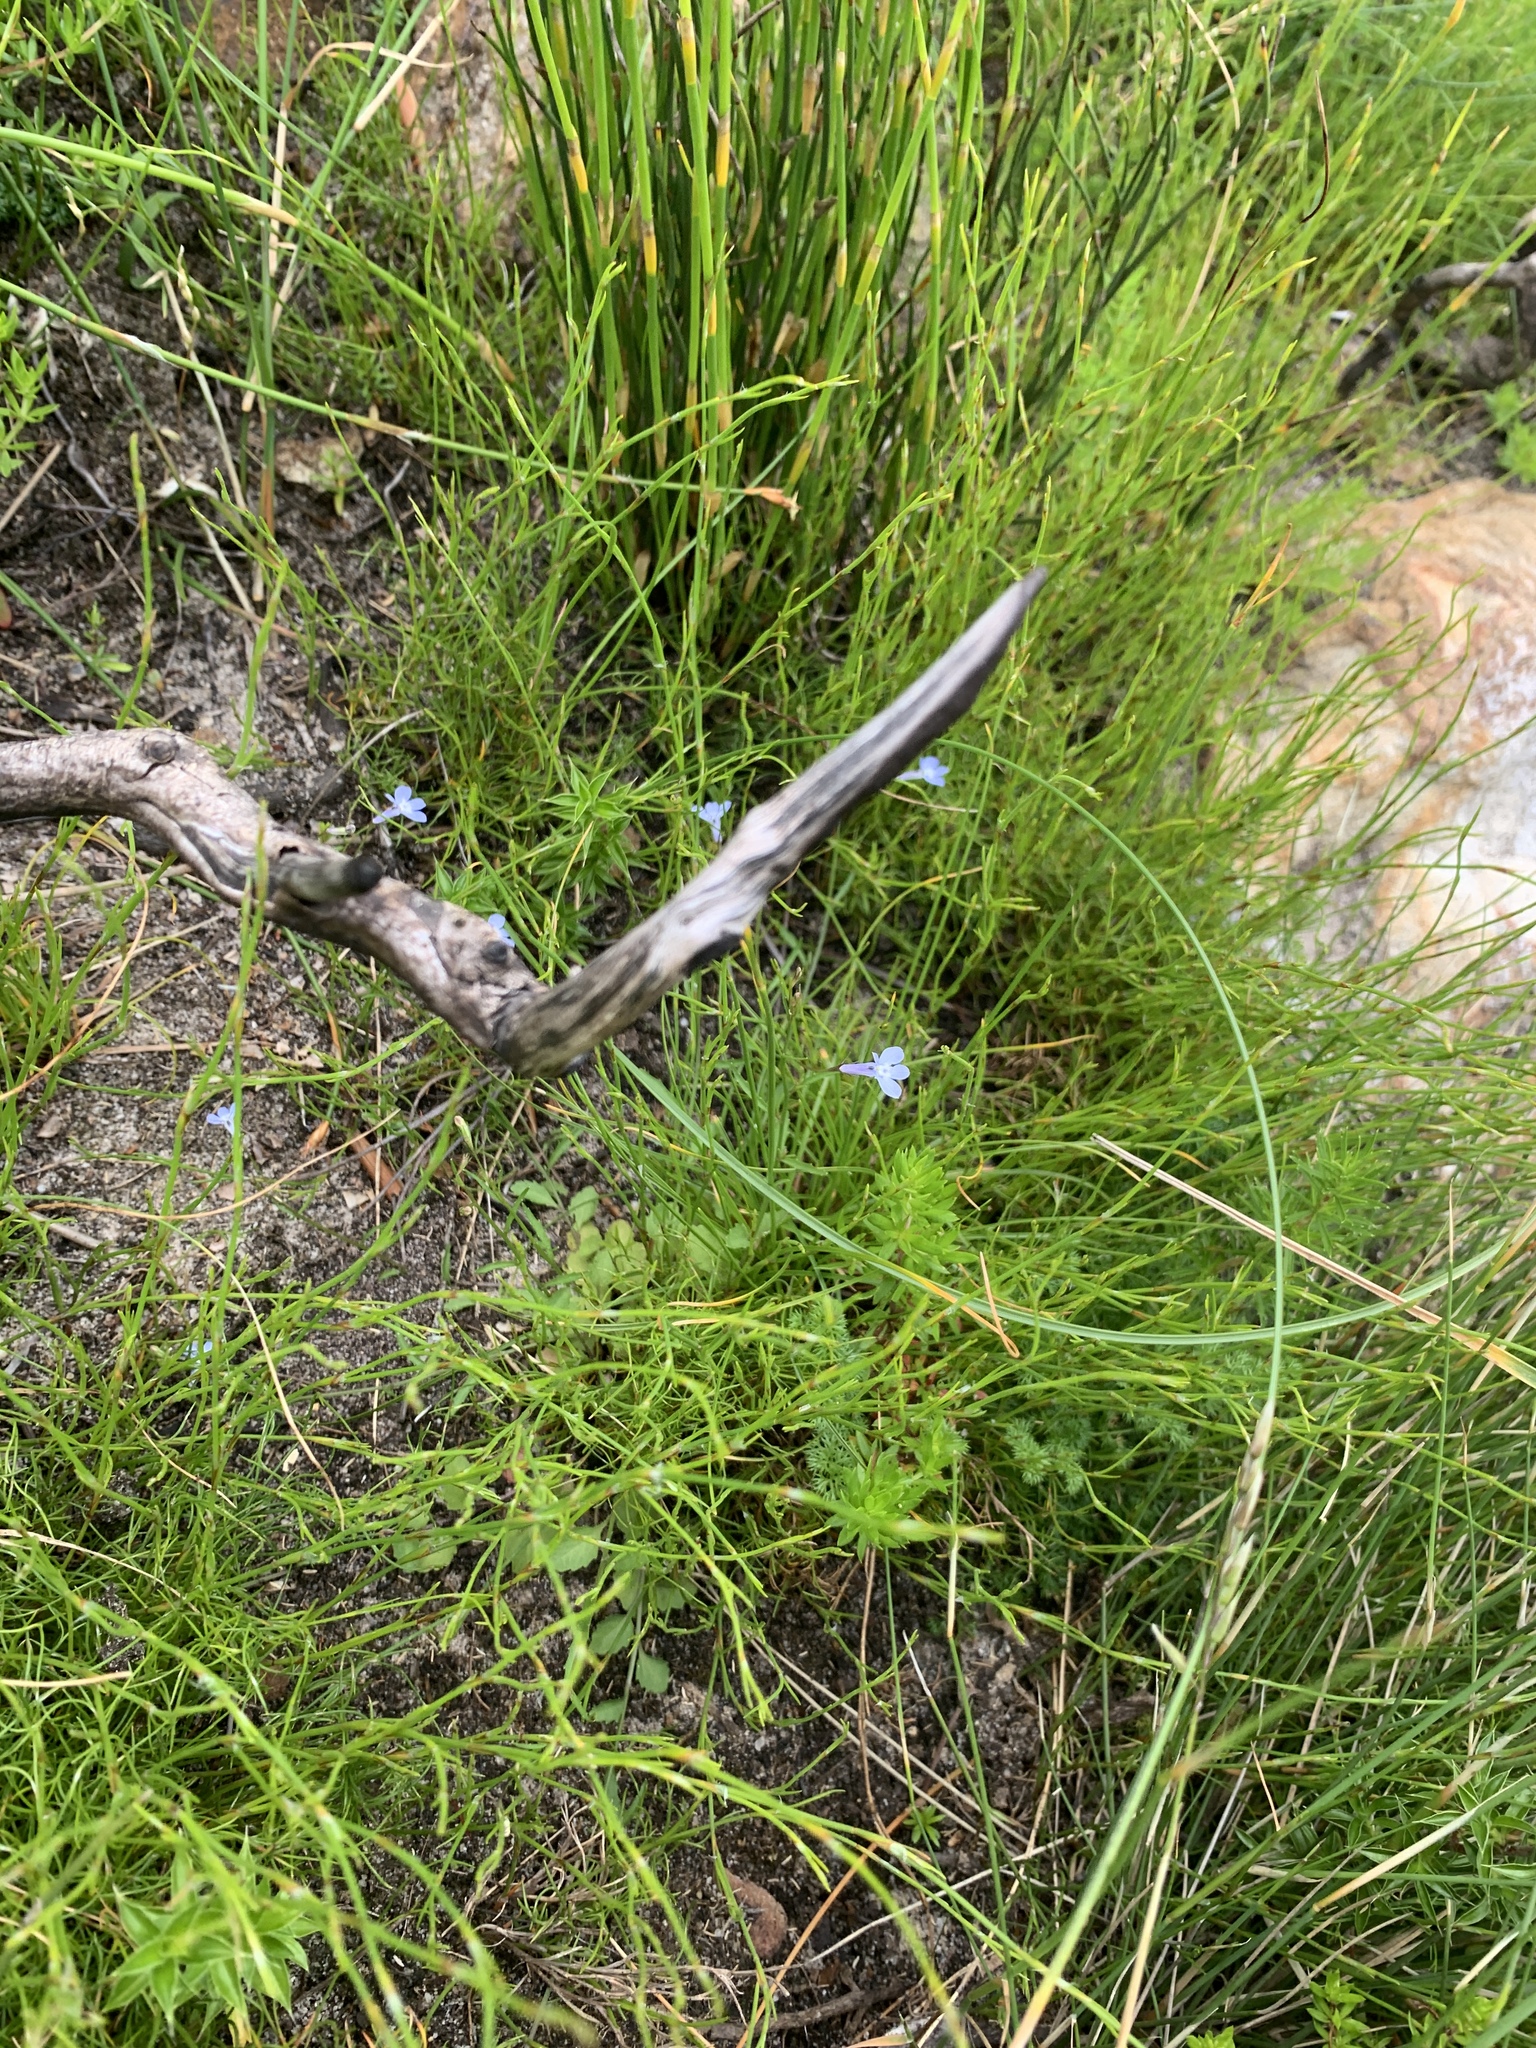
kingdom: Plantae
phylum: Tracheophyta
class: Magnoliopsida
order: Asterales
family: Campanulaceae
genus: Lobelia
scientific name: Lobelia erinus
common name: Edging lobelia
